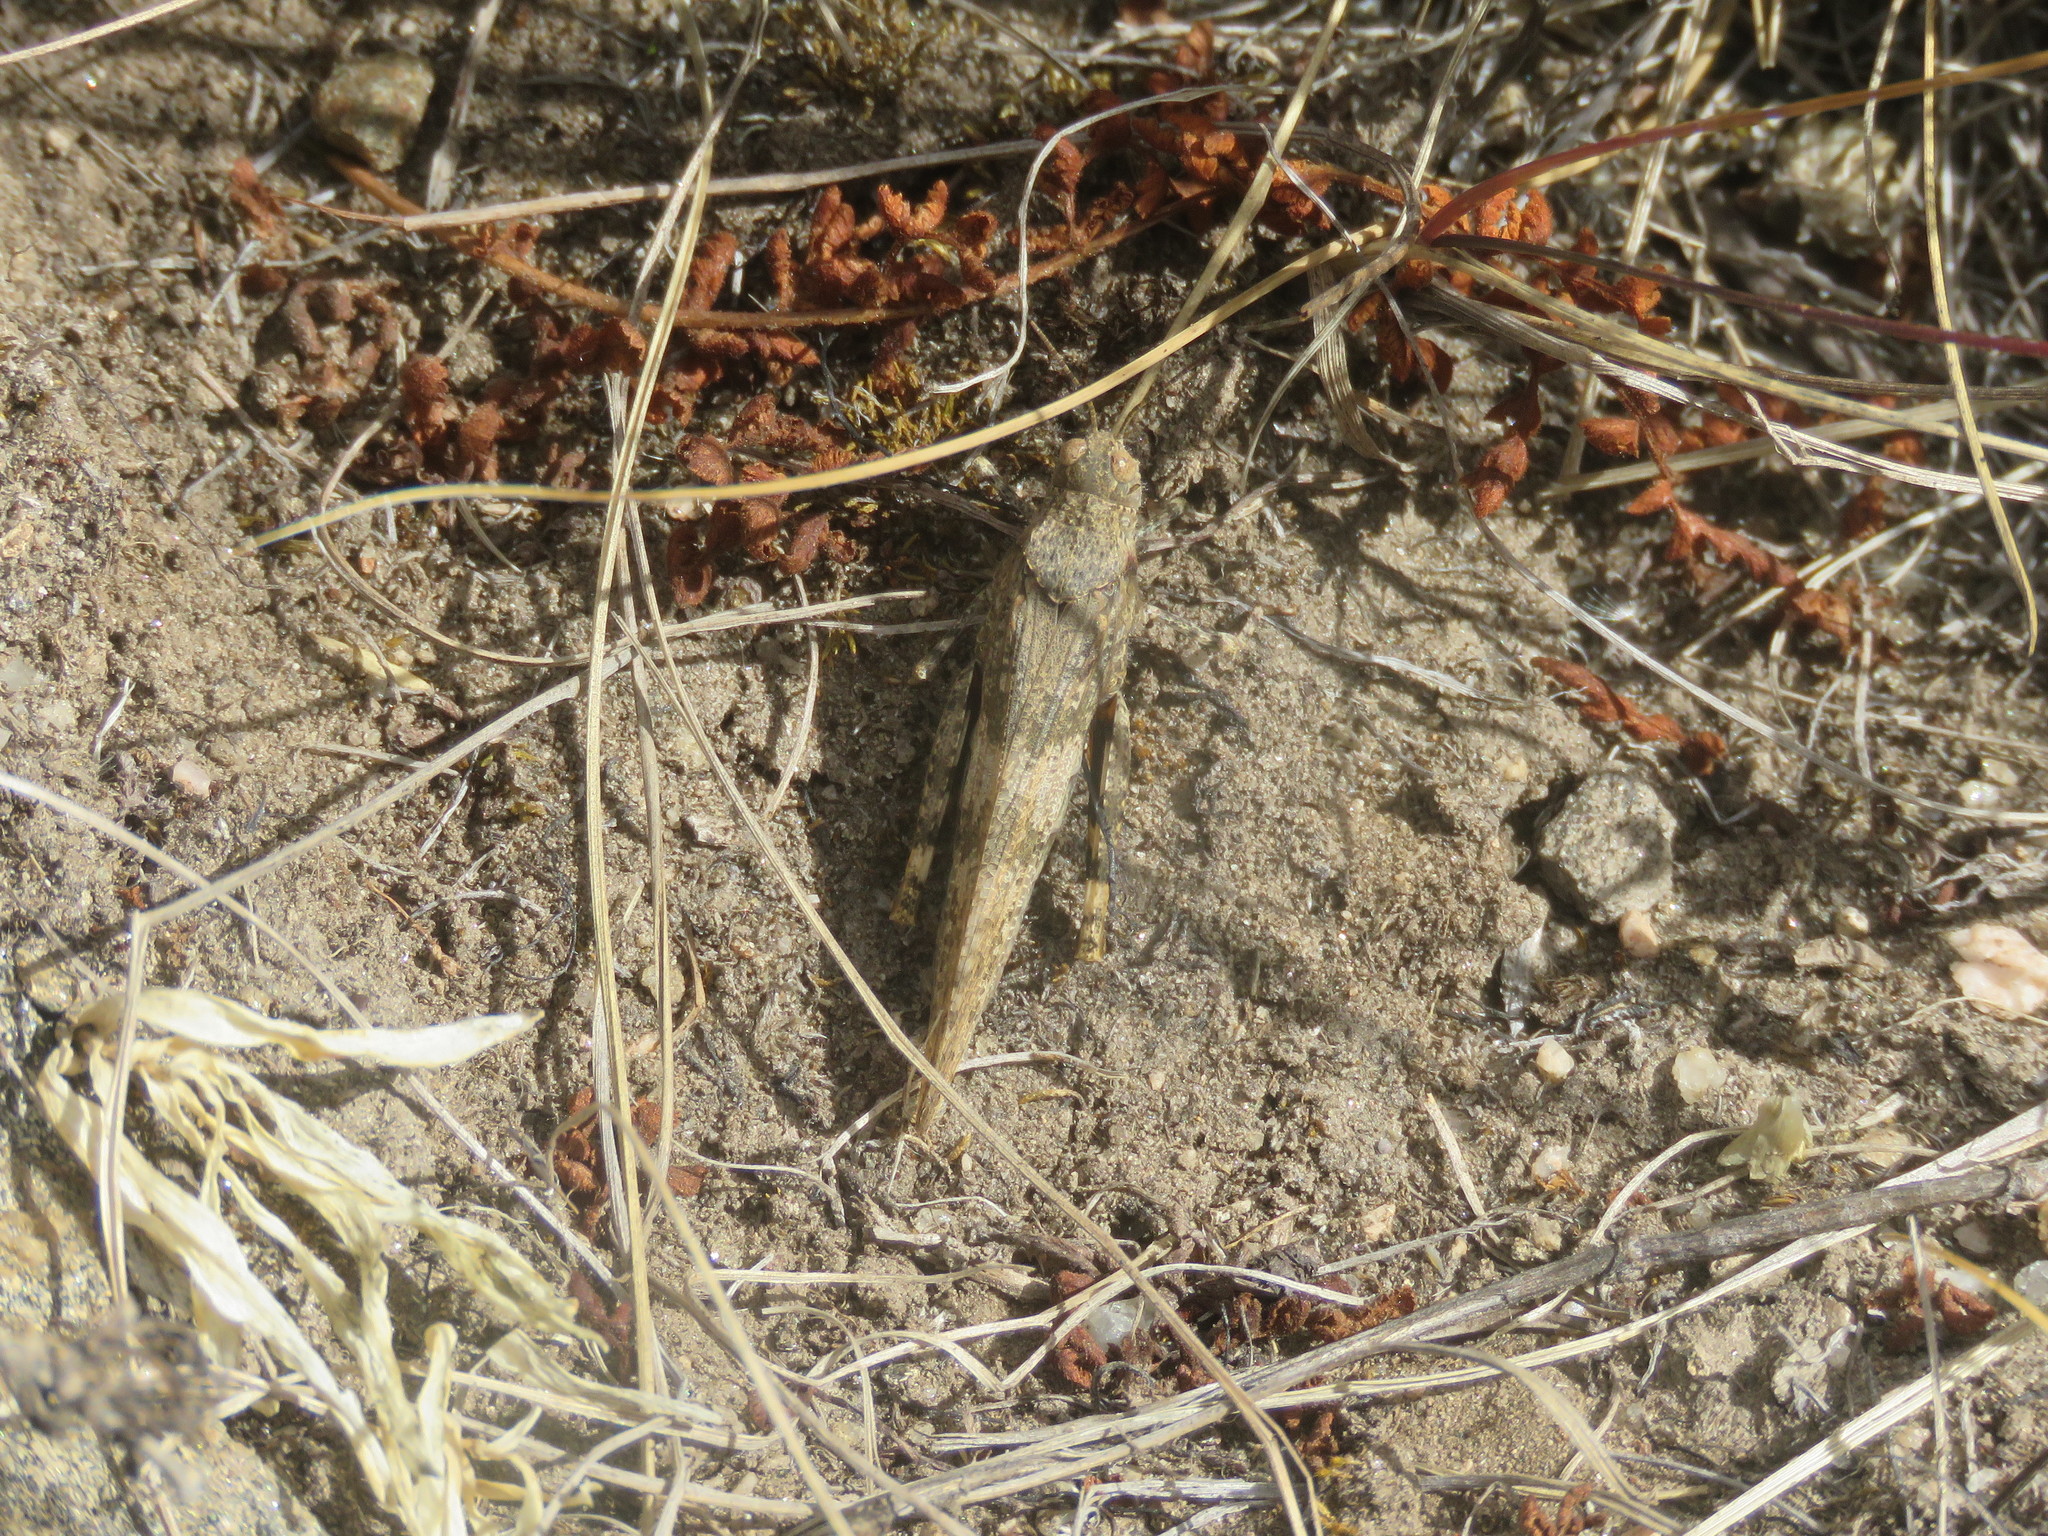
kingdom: Animalia
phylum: Arthropoda
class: Insecta
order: Orthoptera
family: Acrididae
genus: Trimerotropis
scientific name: Trimerotropis pallidipennis
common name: Pallid-winged grasshopper
